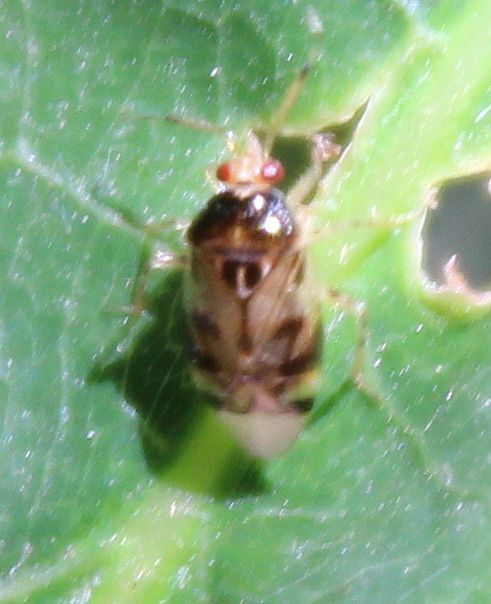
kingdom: Animalia
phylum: Arthropoda
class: Insecta
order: Hemiptera
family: Miridae
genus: Deraeocoris
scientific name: Deraeocoris lutescens
